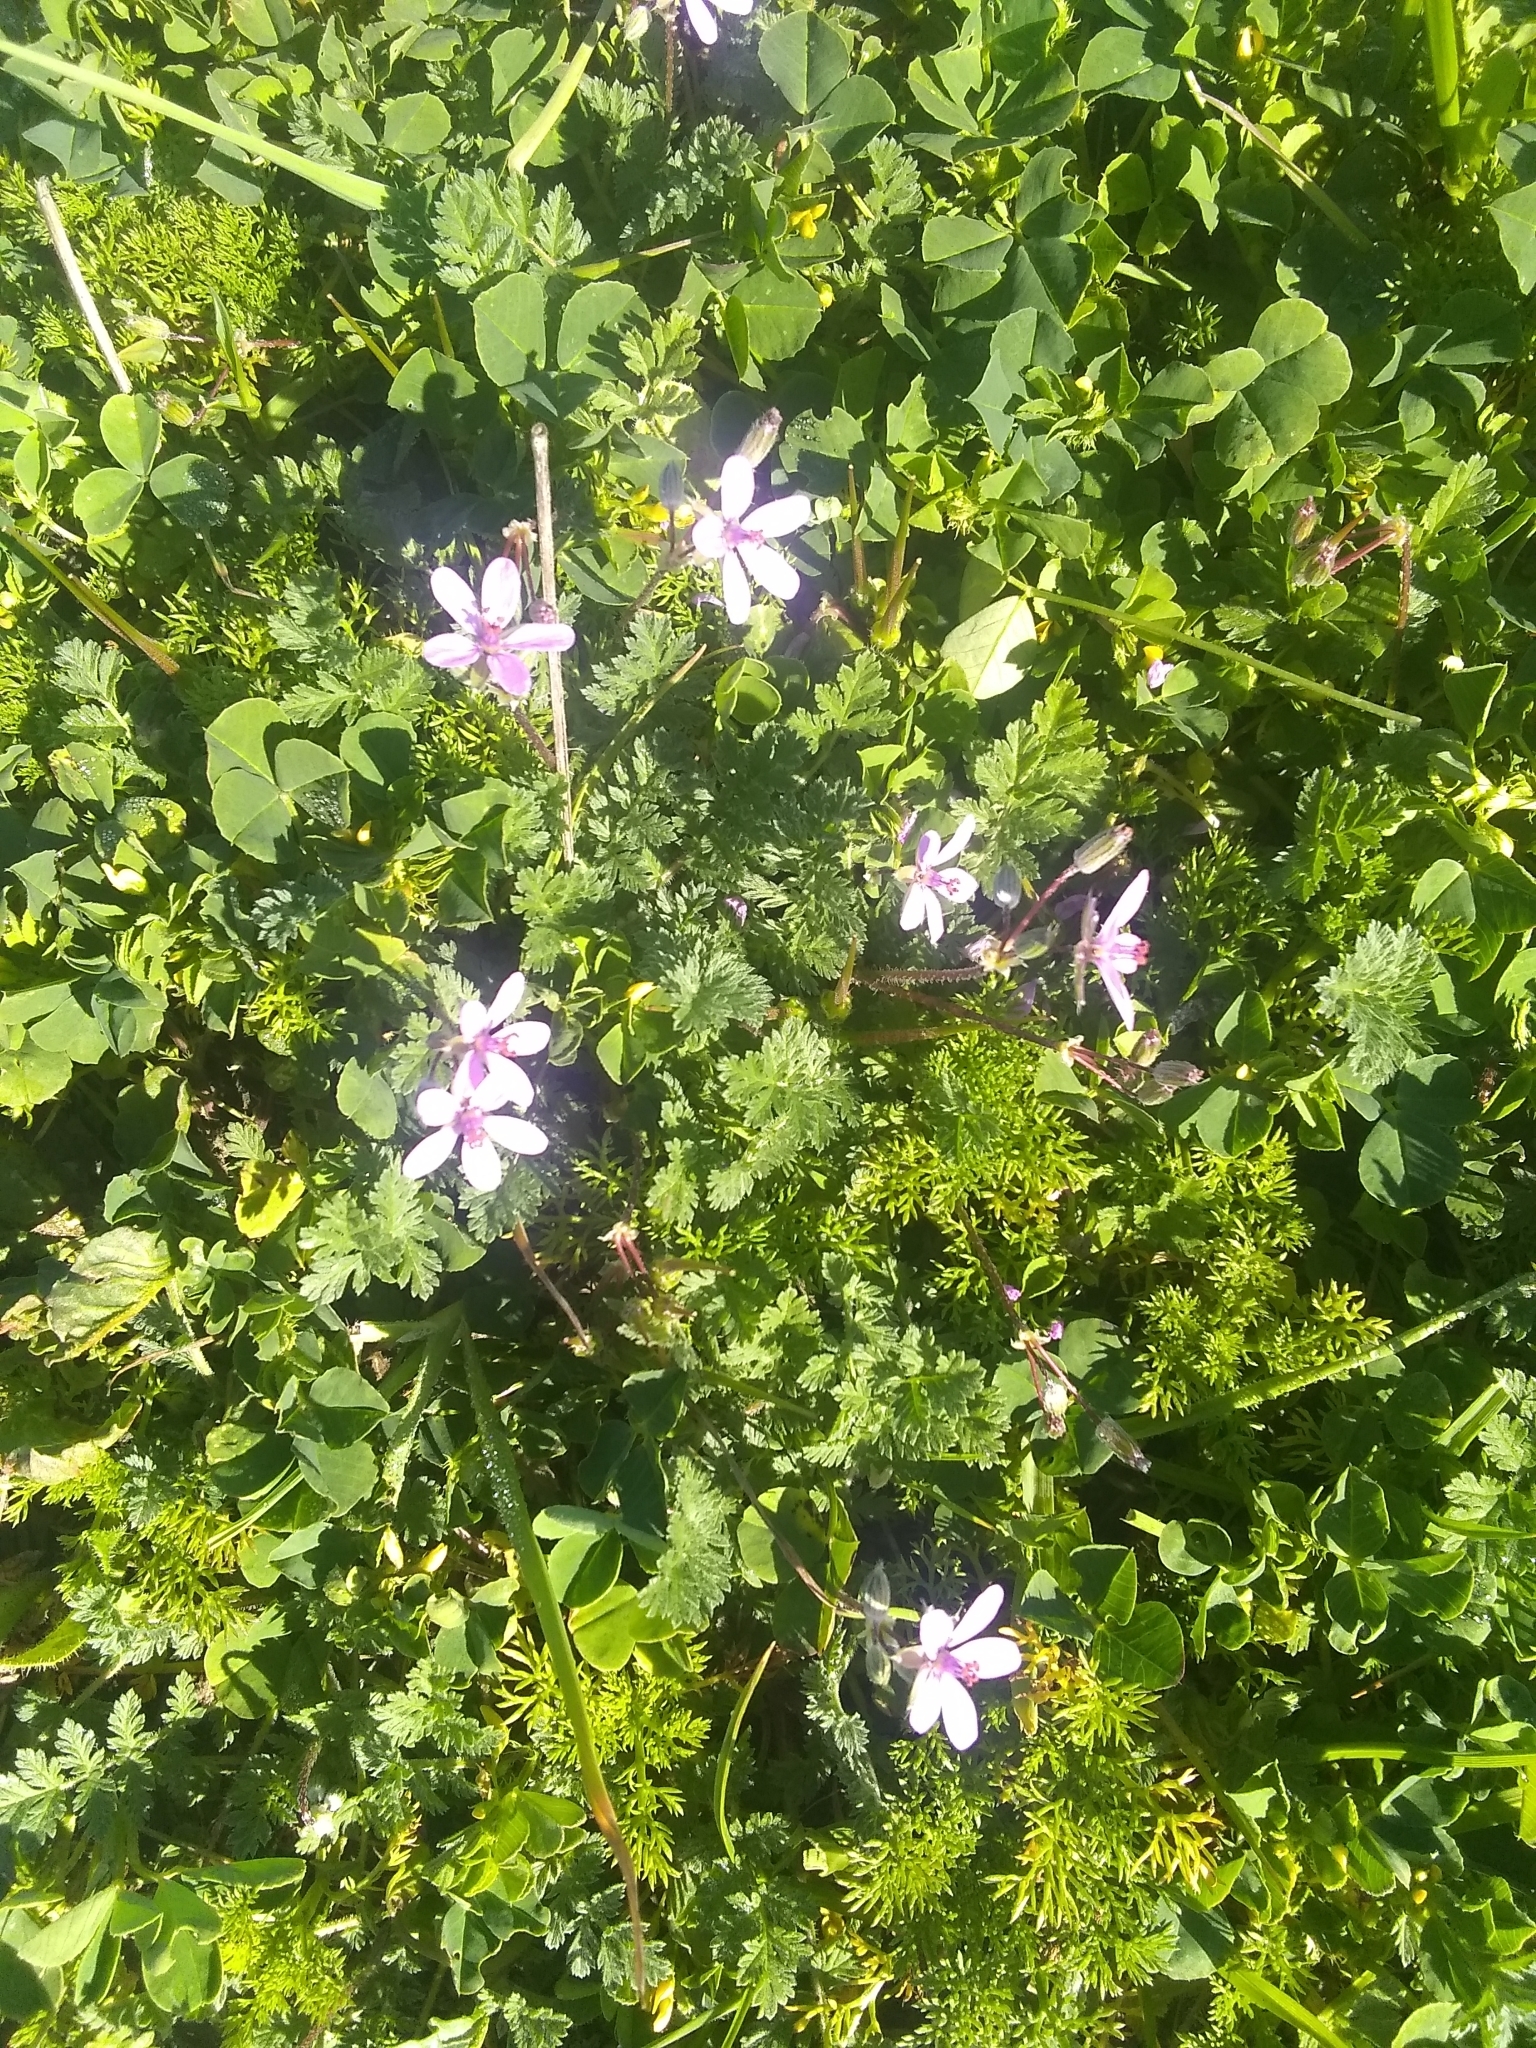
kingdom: Plantae
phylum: Tracheophyta
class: Magnoliopsida
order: Geraniales
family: Geraniaceae
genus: Erodium
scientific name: Erodium cicutarium
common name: Common stork's-bill
